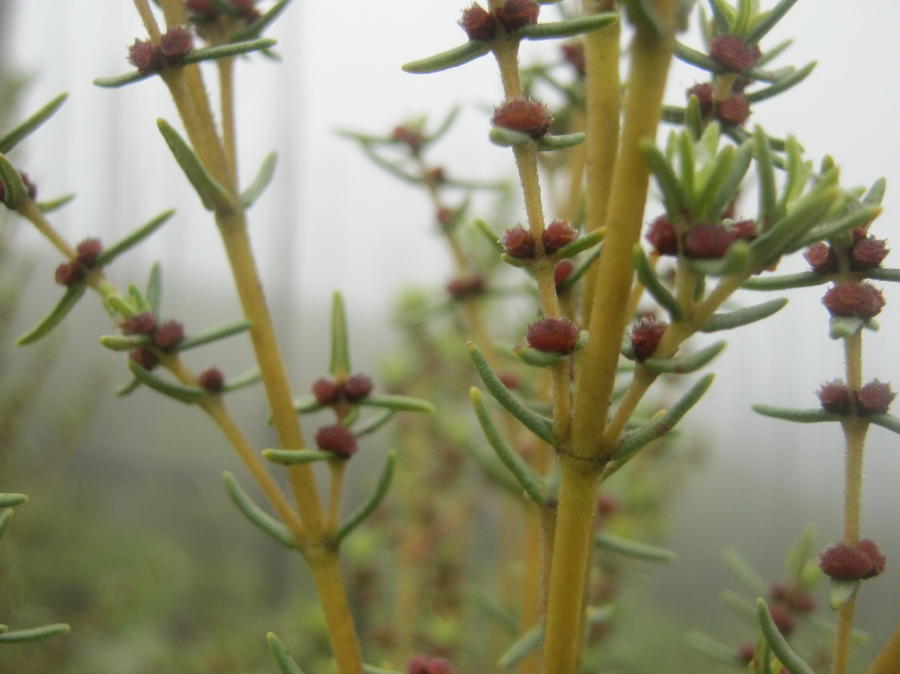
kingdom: Plantae
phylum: Tracheophyta
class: Magnoliopsida
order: Cornales
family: Grubbiaceae
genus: Grubbia
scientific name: Grubbia rosmarinifolia
